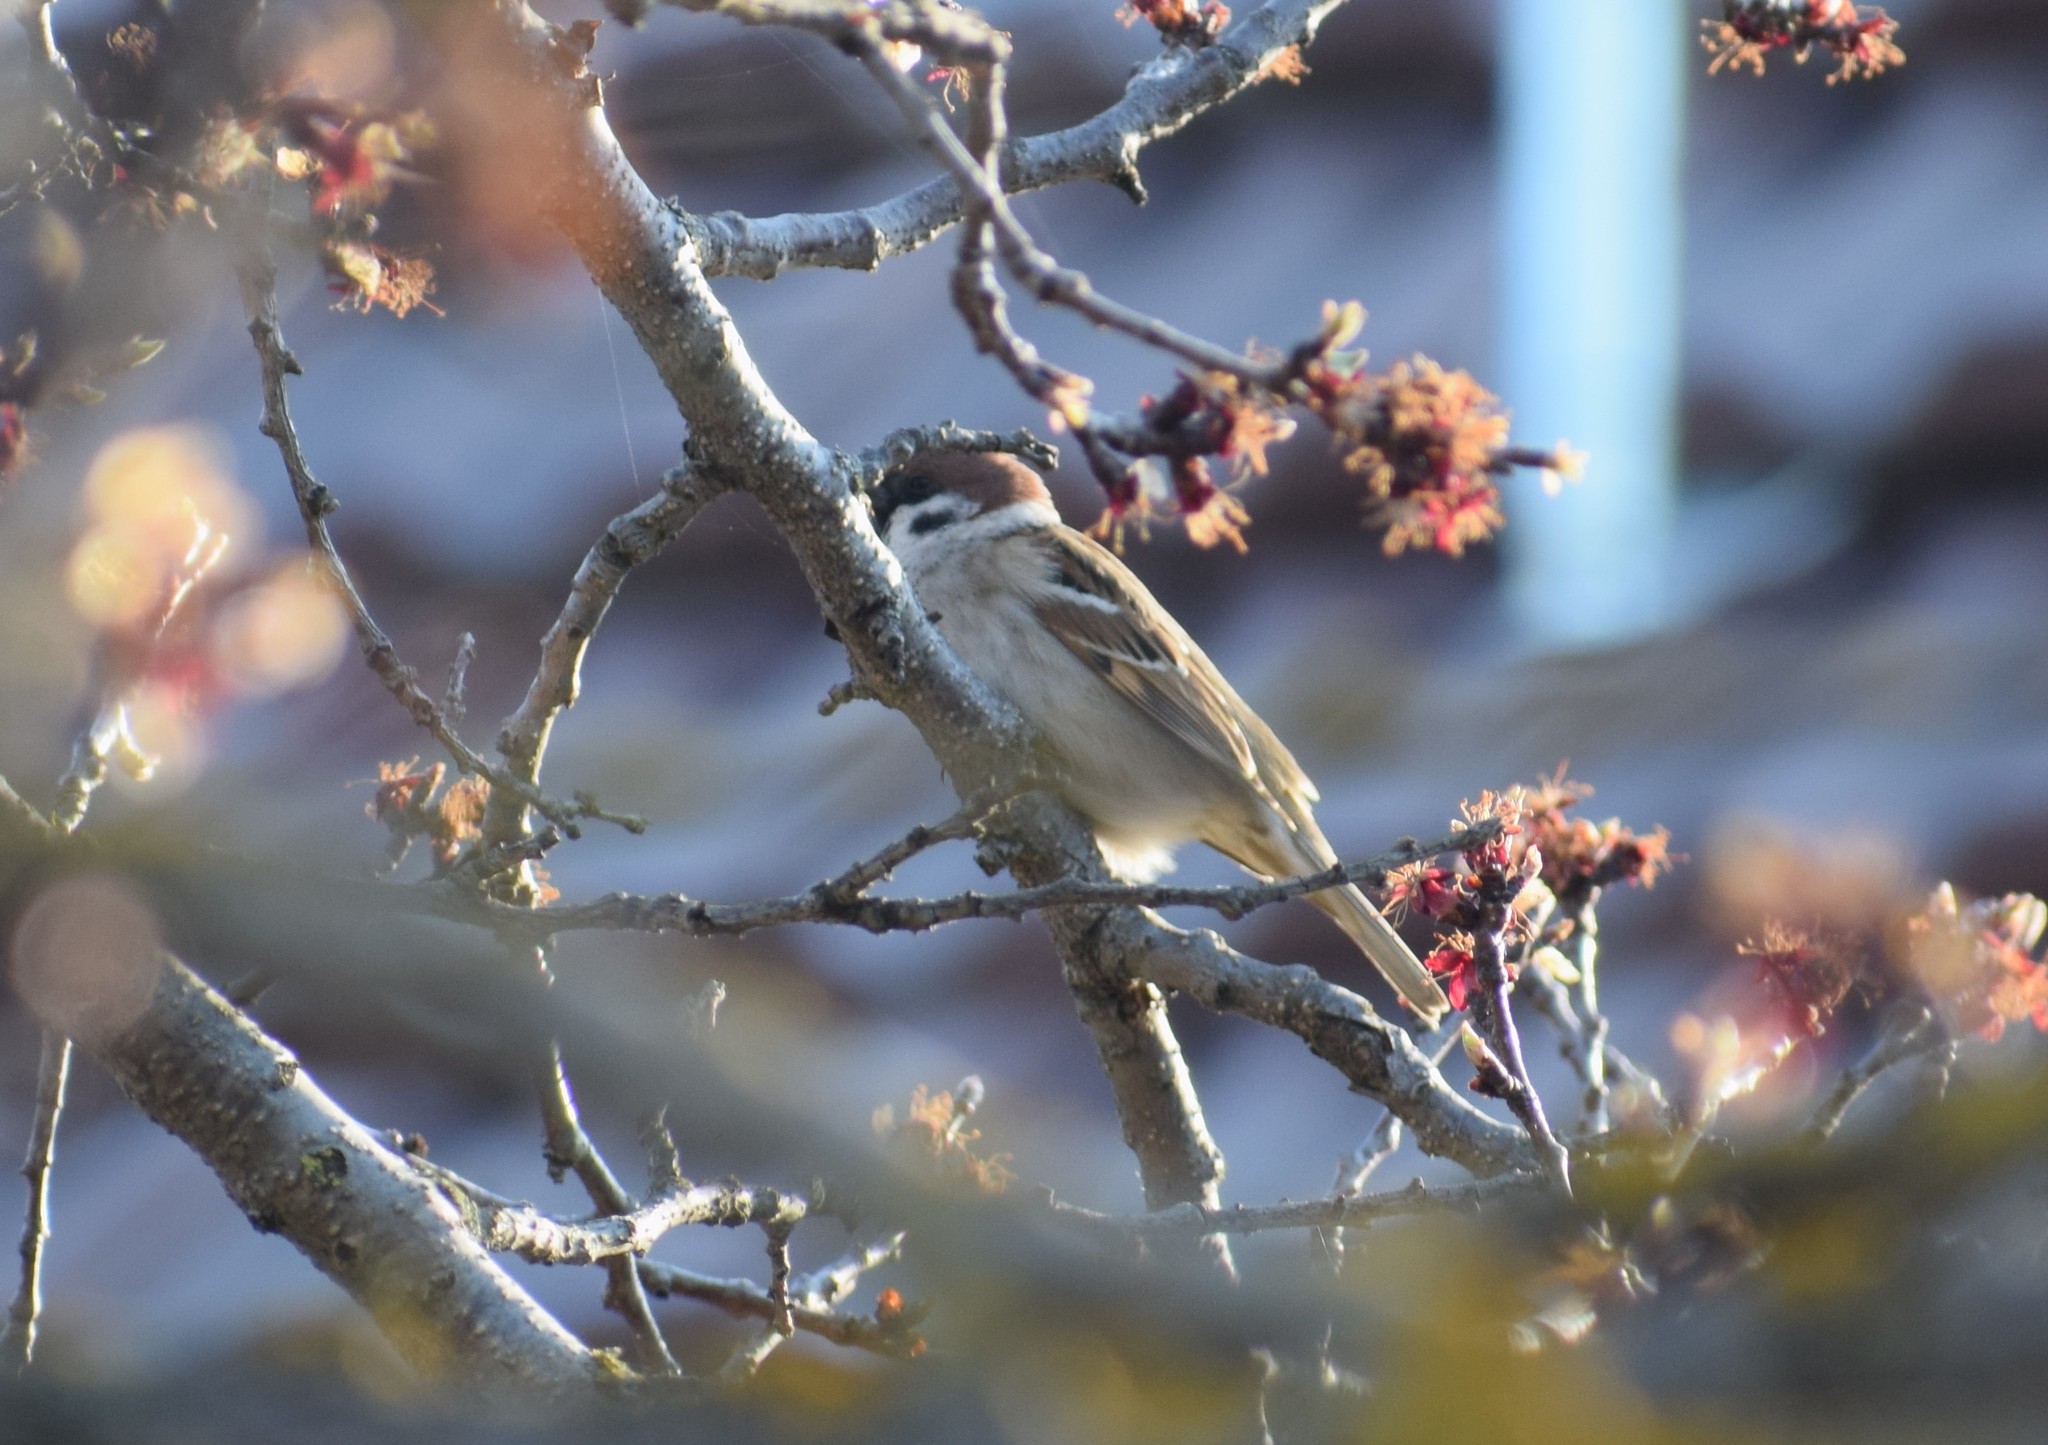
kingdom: Animalia
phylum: Chordata
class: Aves
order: Passeriformes
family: Passeridae
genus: Passer
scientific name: Passer montanus
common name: Eurasian tree sparrow
